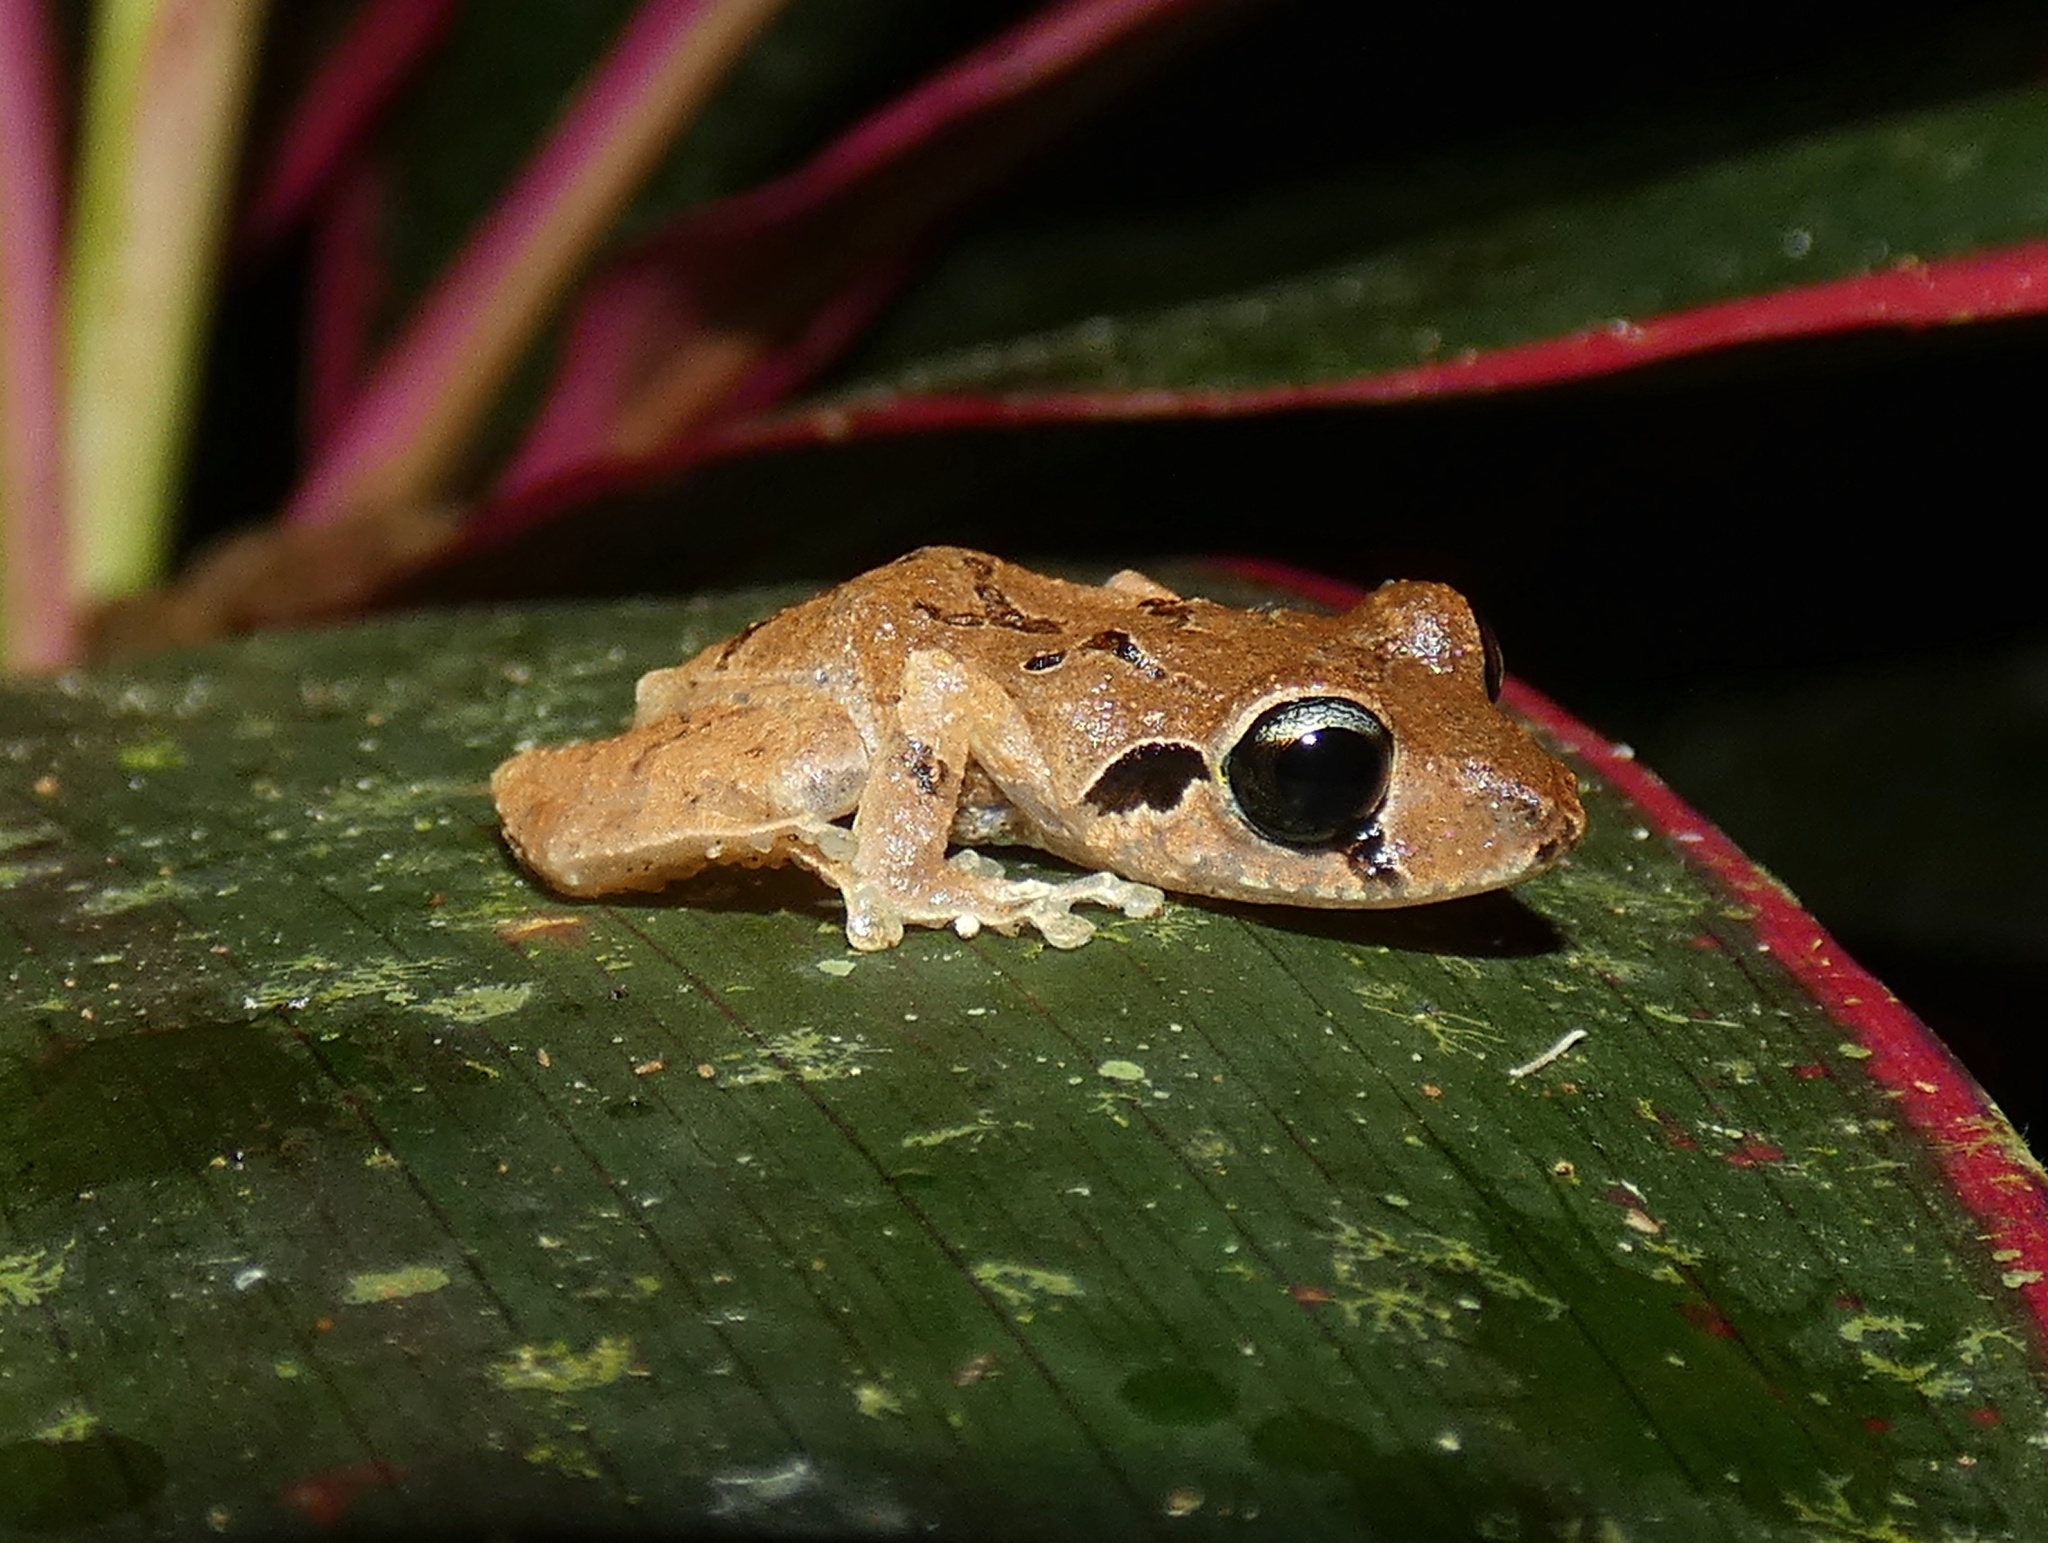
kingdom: Animalia
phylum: Chordata
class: Amphibia
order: Anura
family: Craugastoridae
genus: Pristimantis
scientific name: Pristimantis taeniatus
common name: Banded robber frog
